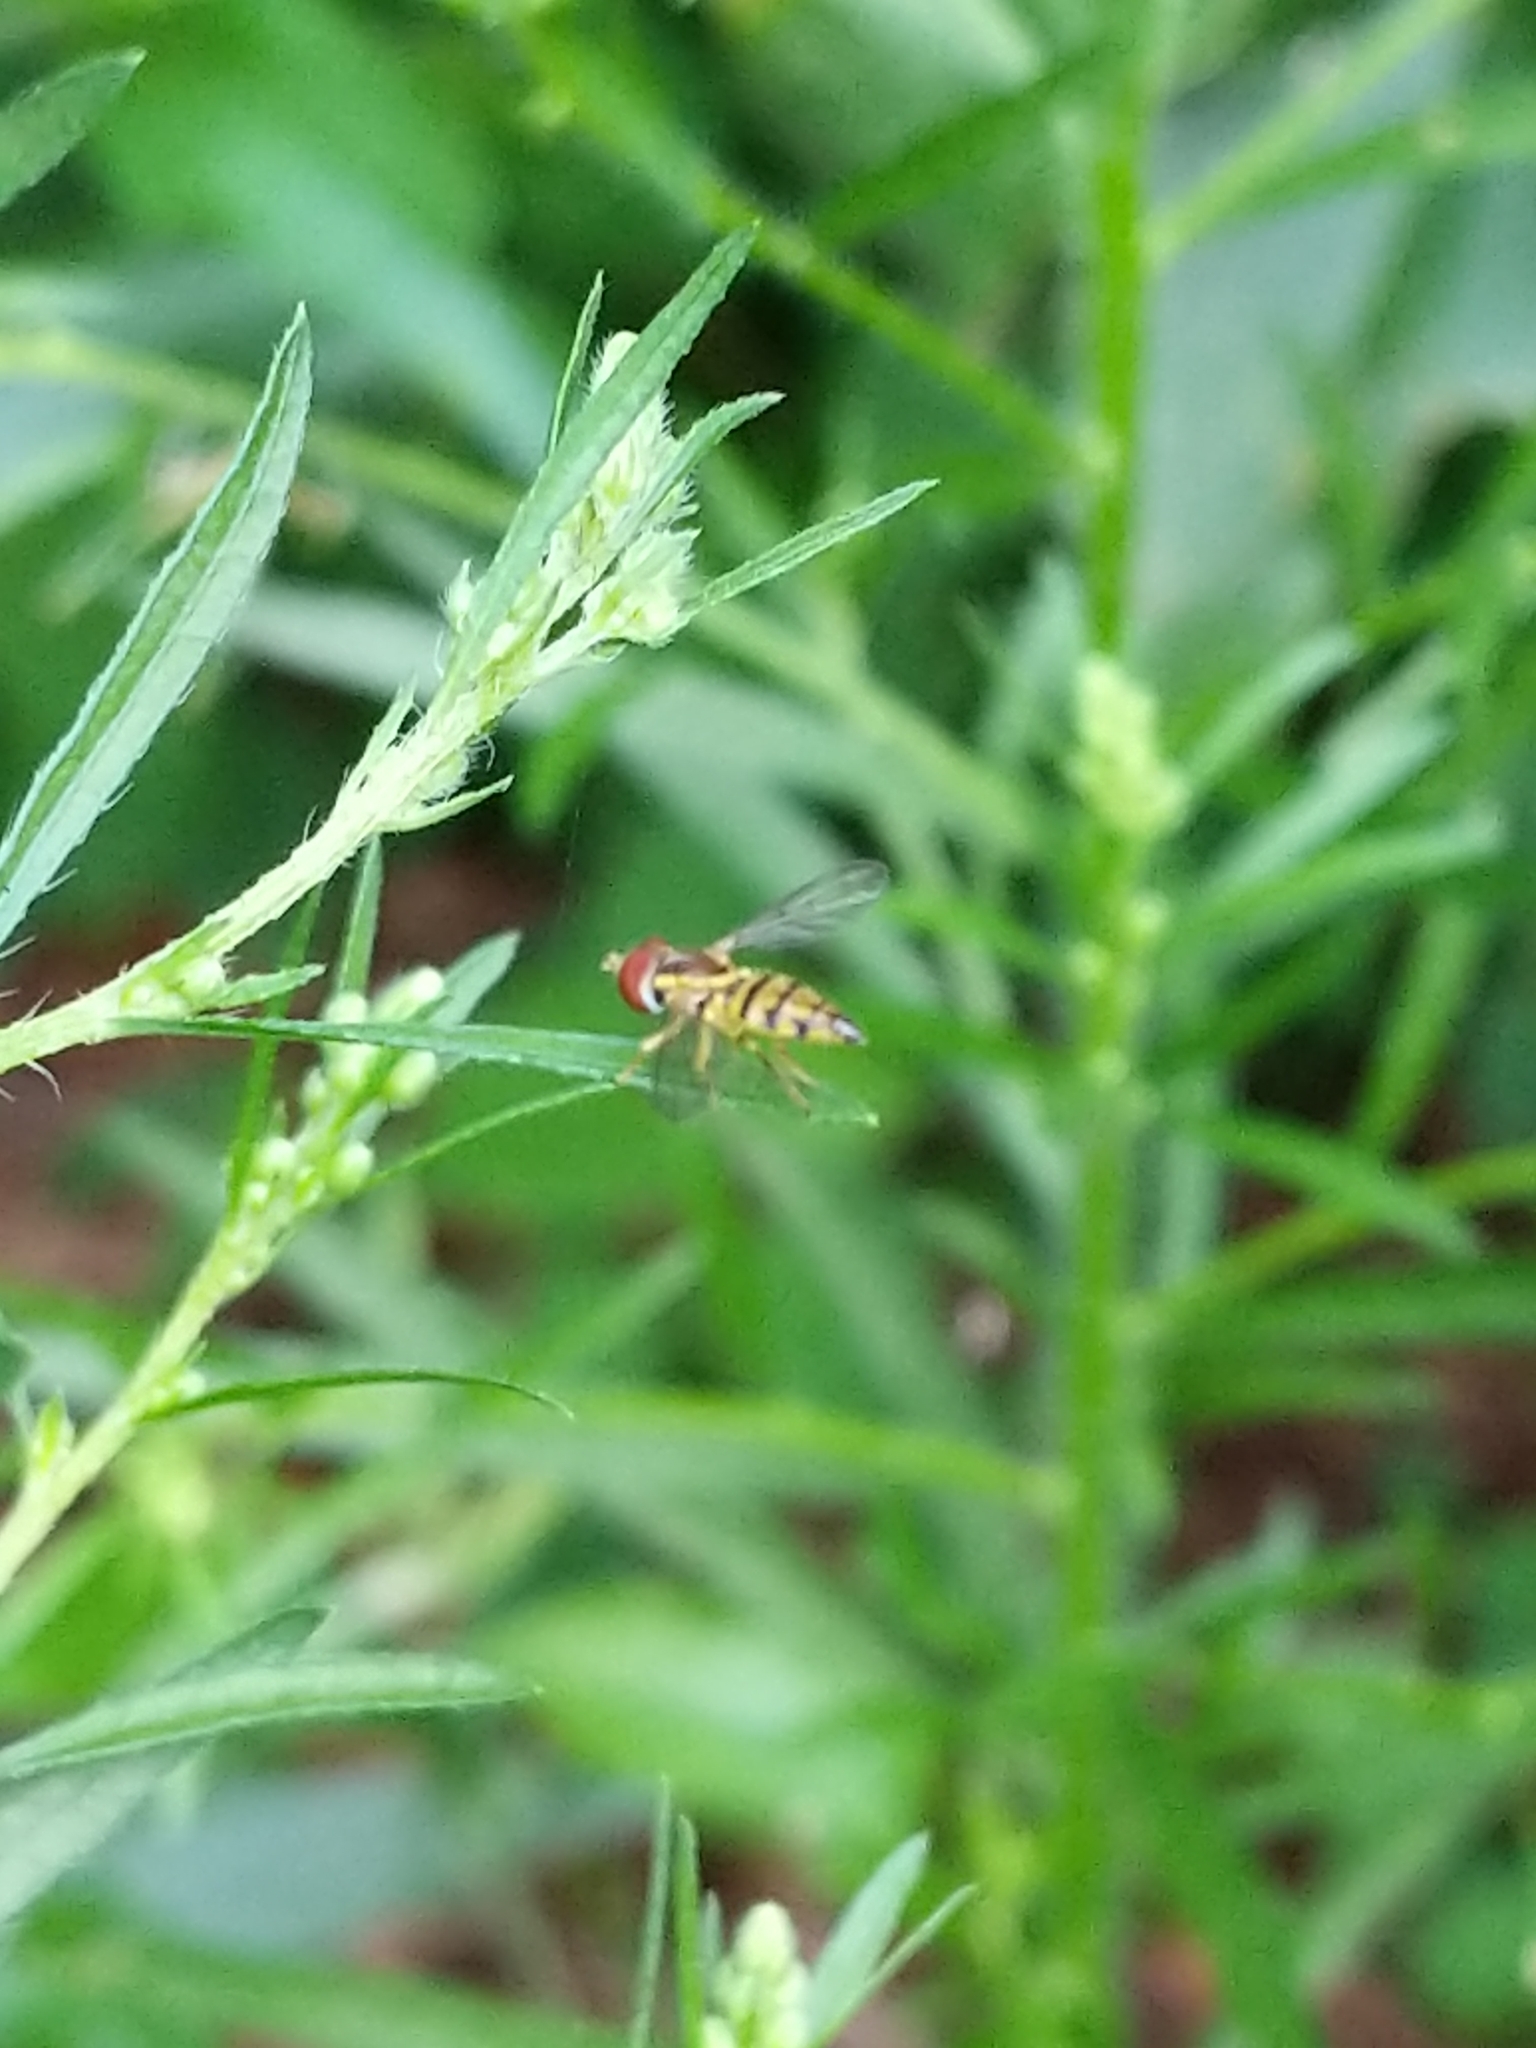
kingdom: Animalia
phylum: Arthropoda
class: Insecta
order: Diptera
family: Syrphidae
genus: Toxomerus
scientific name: Toxomerus geminatus
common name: Eastern calligrapher
